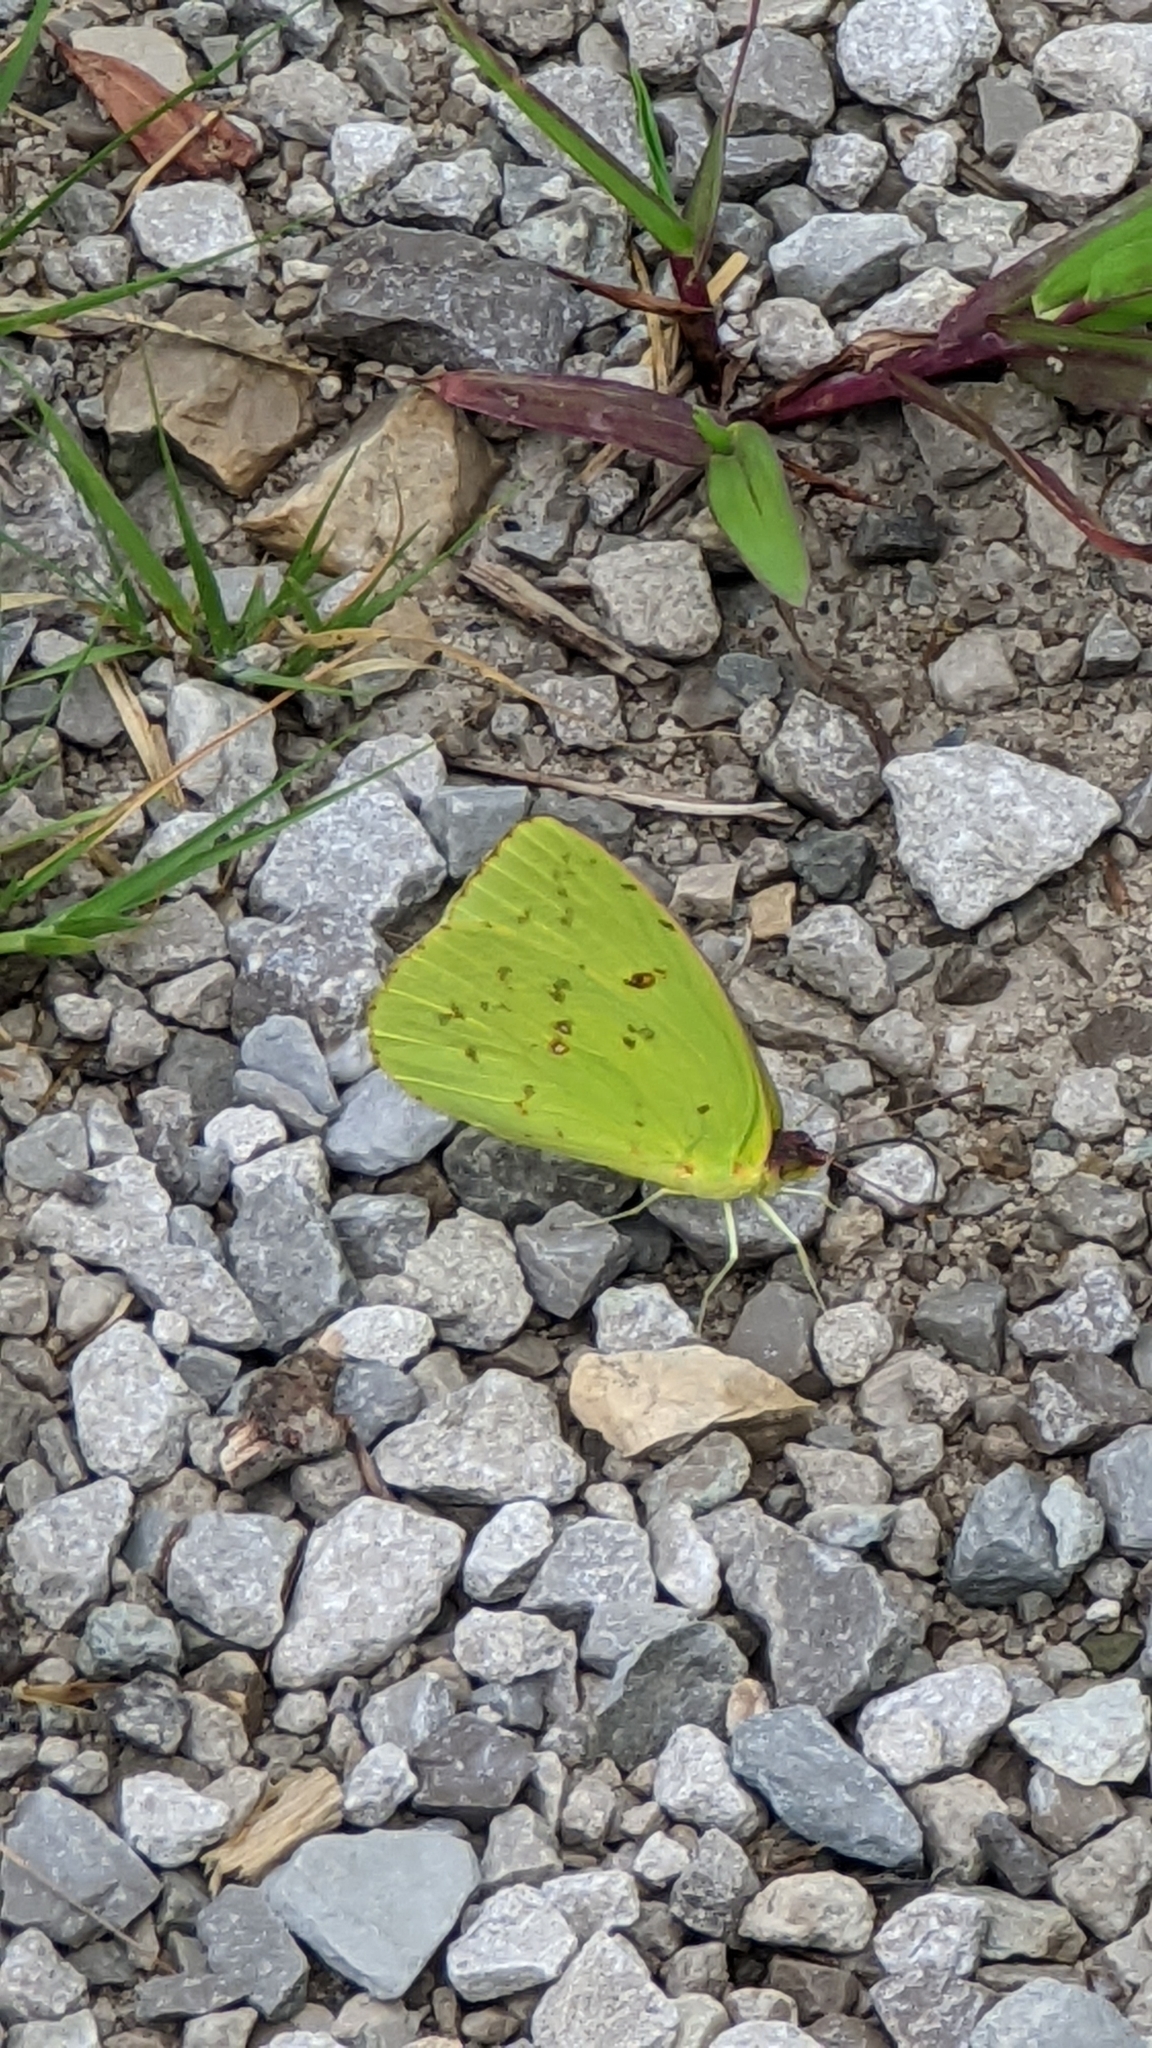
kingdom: Animalia
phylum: Arthropoda
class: Insecta
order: Lepidoptera
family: Pieridae
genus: Phoebis
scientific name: Phoebis sennae
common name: Cloudless sulphur
